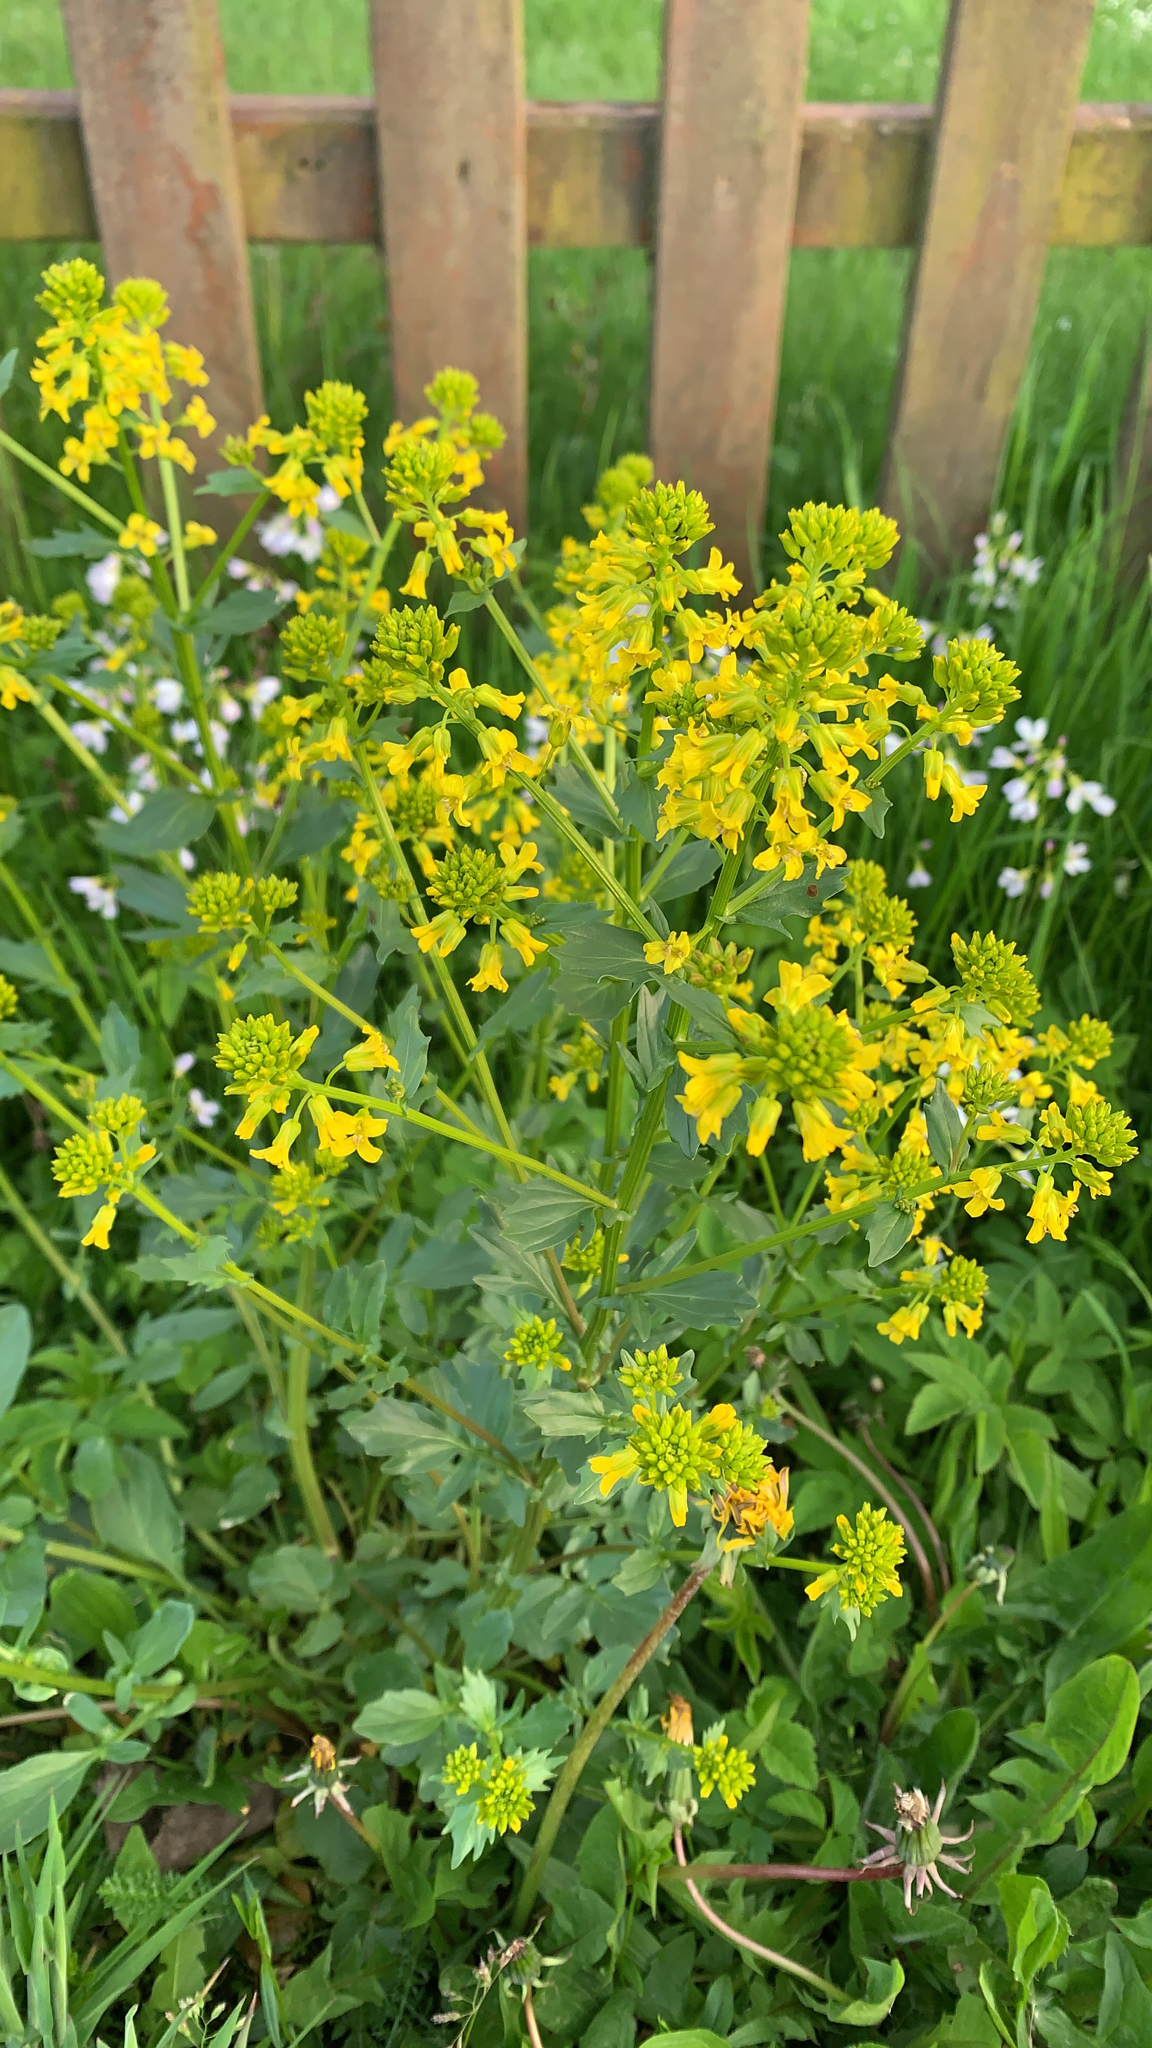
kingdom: Plantae
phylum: Tracheophyta
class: Magnoliopsida
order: Brassicales
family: Brassicaceae
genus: Barbarea
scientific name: Barbarea vulgaris
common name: Cressy-greens
